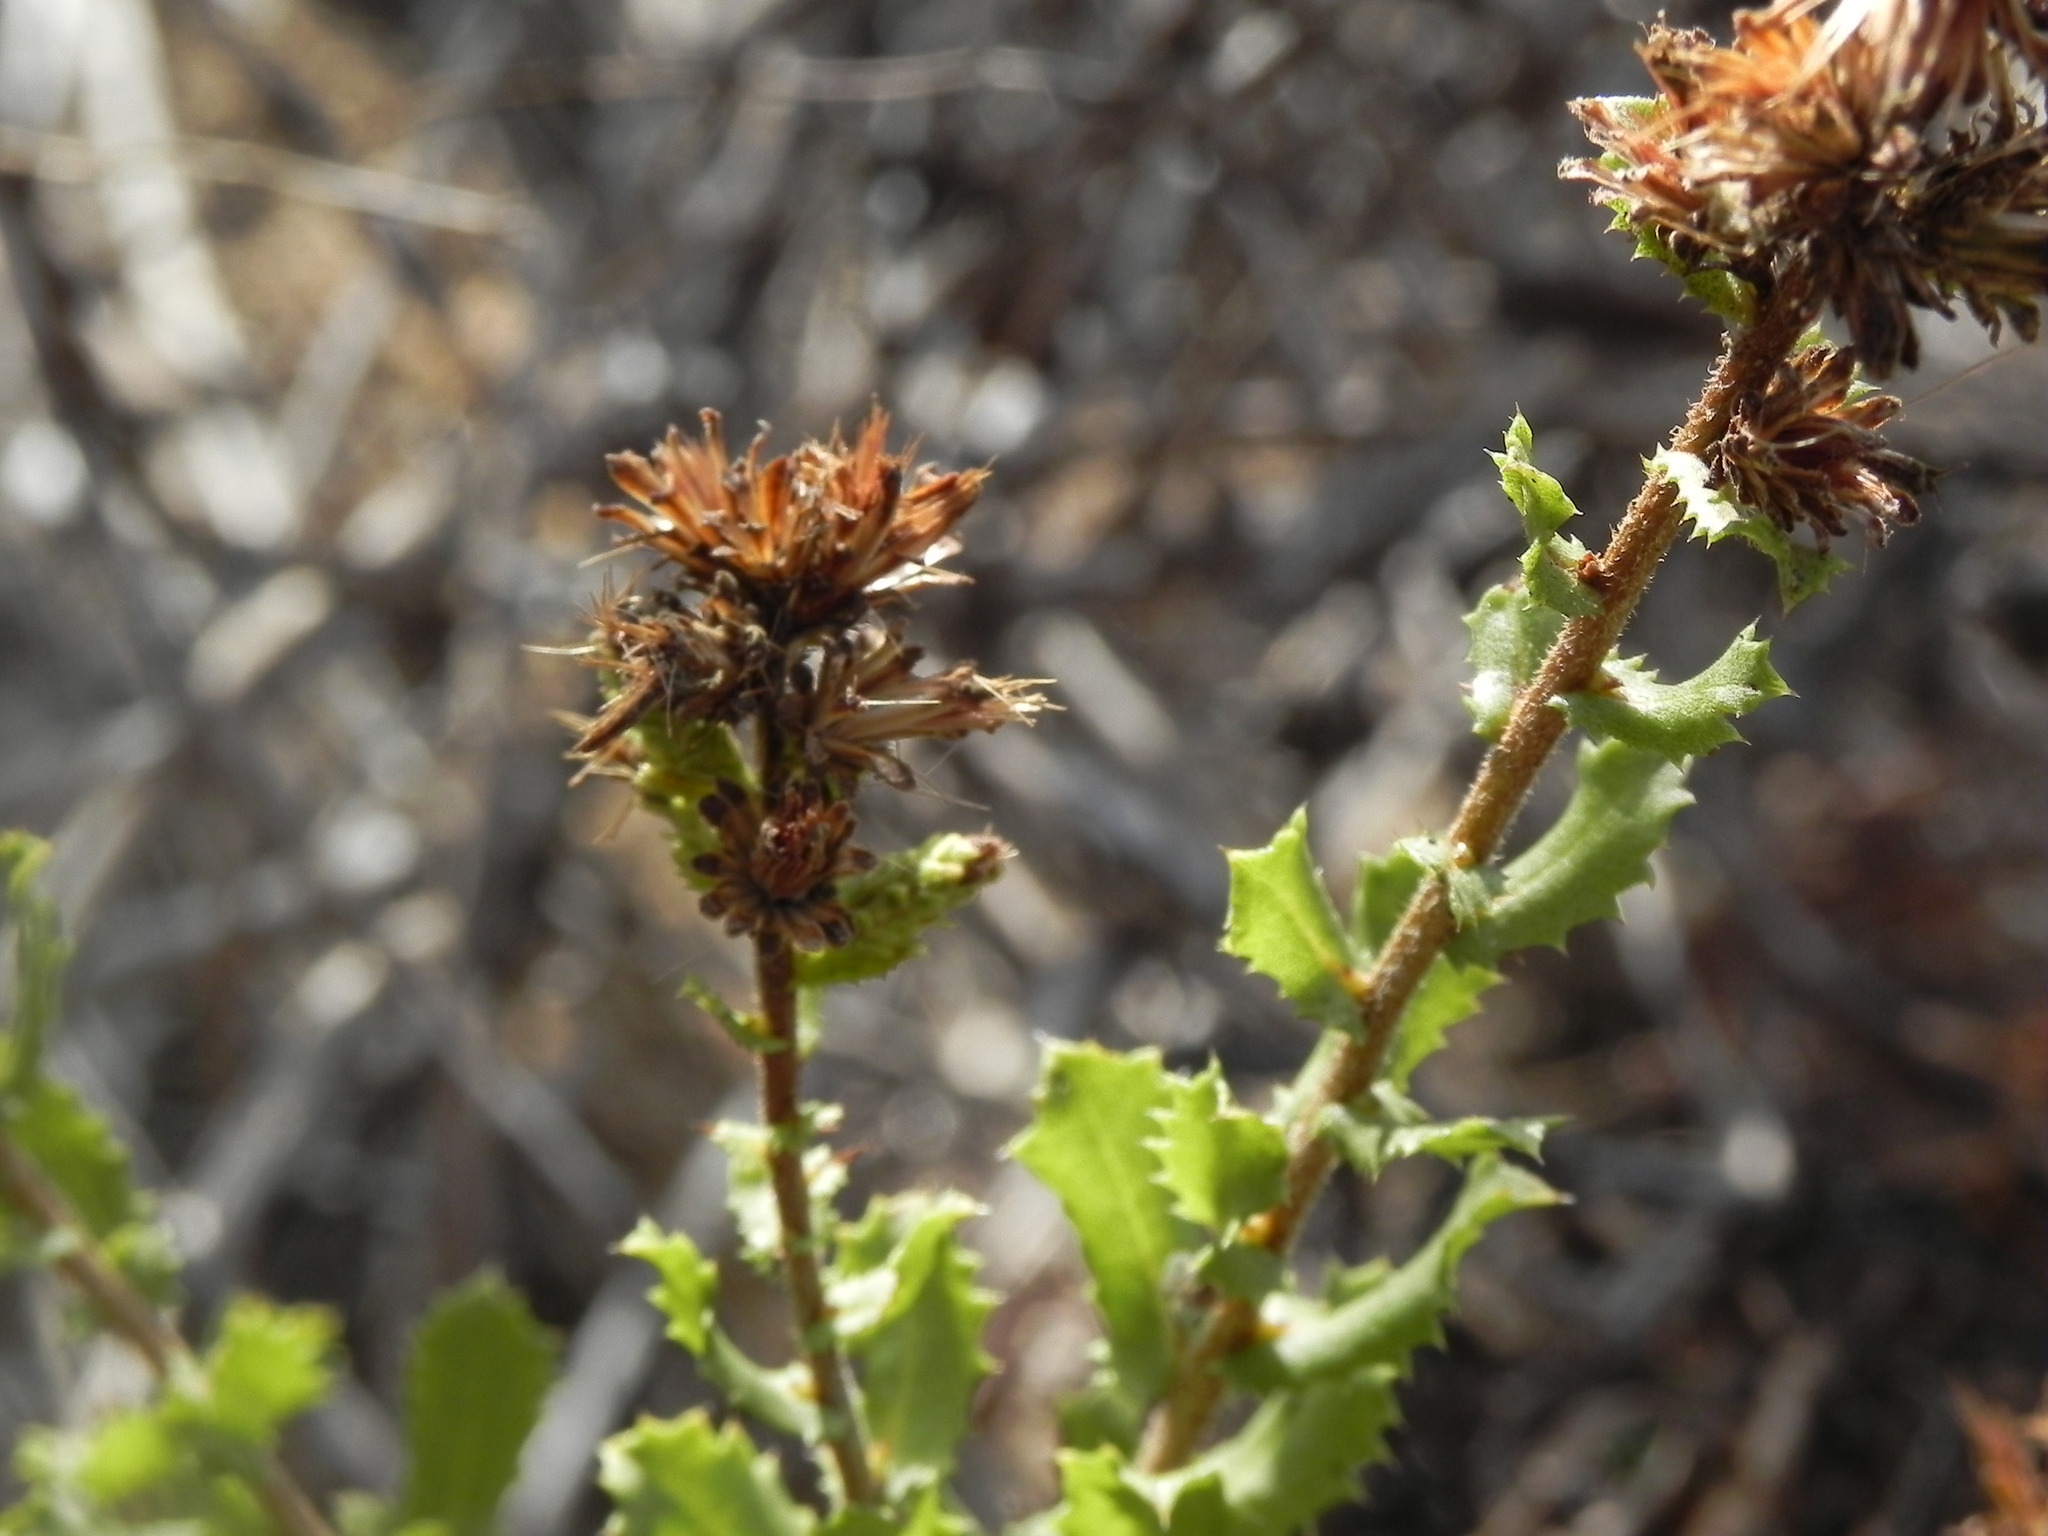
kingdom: Plantae
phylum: Tracheophyta
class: Magnoliopsida
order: Asterales
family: Asteraceae
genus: Hazardia
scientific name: Hazardia squarrosa
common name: Saw-tooth goldenbush
